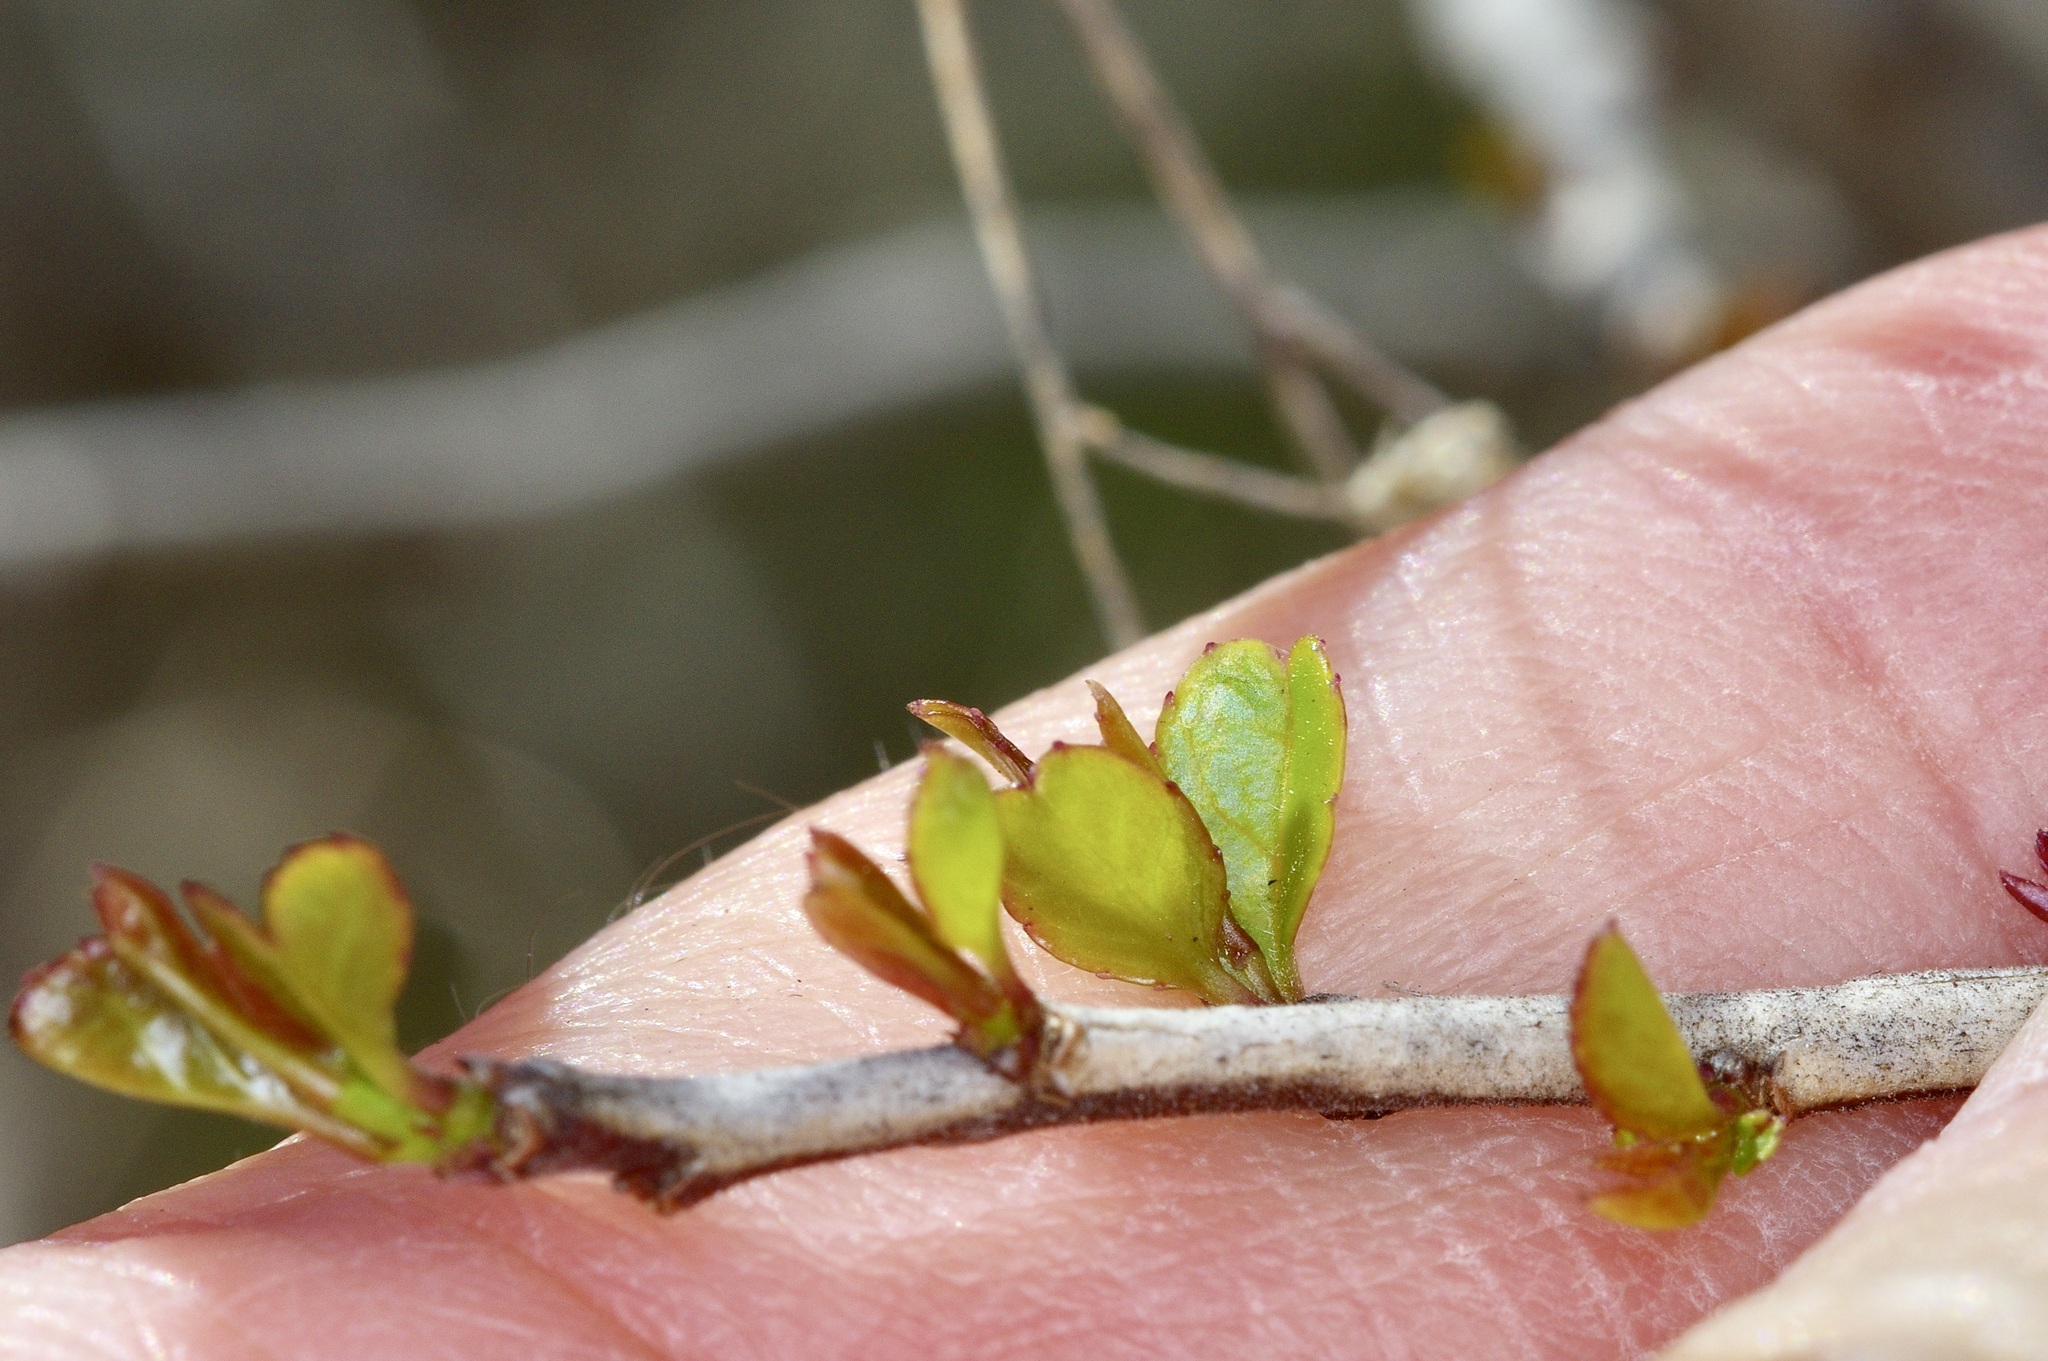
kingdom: Plantae
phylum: Tracheophyta
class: Magnoliopsida
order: Aquifoliales
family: Aquifoliaceae
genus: Ilex
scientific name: Ilex decidua
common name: Possum-haw
